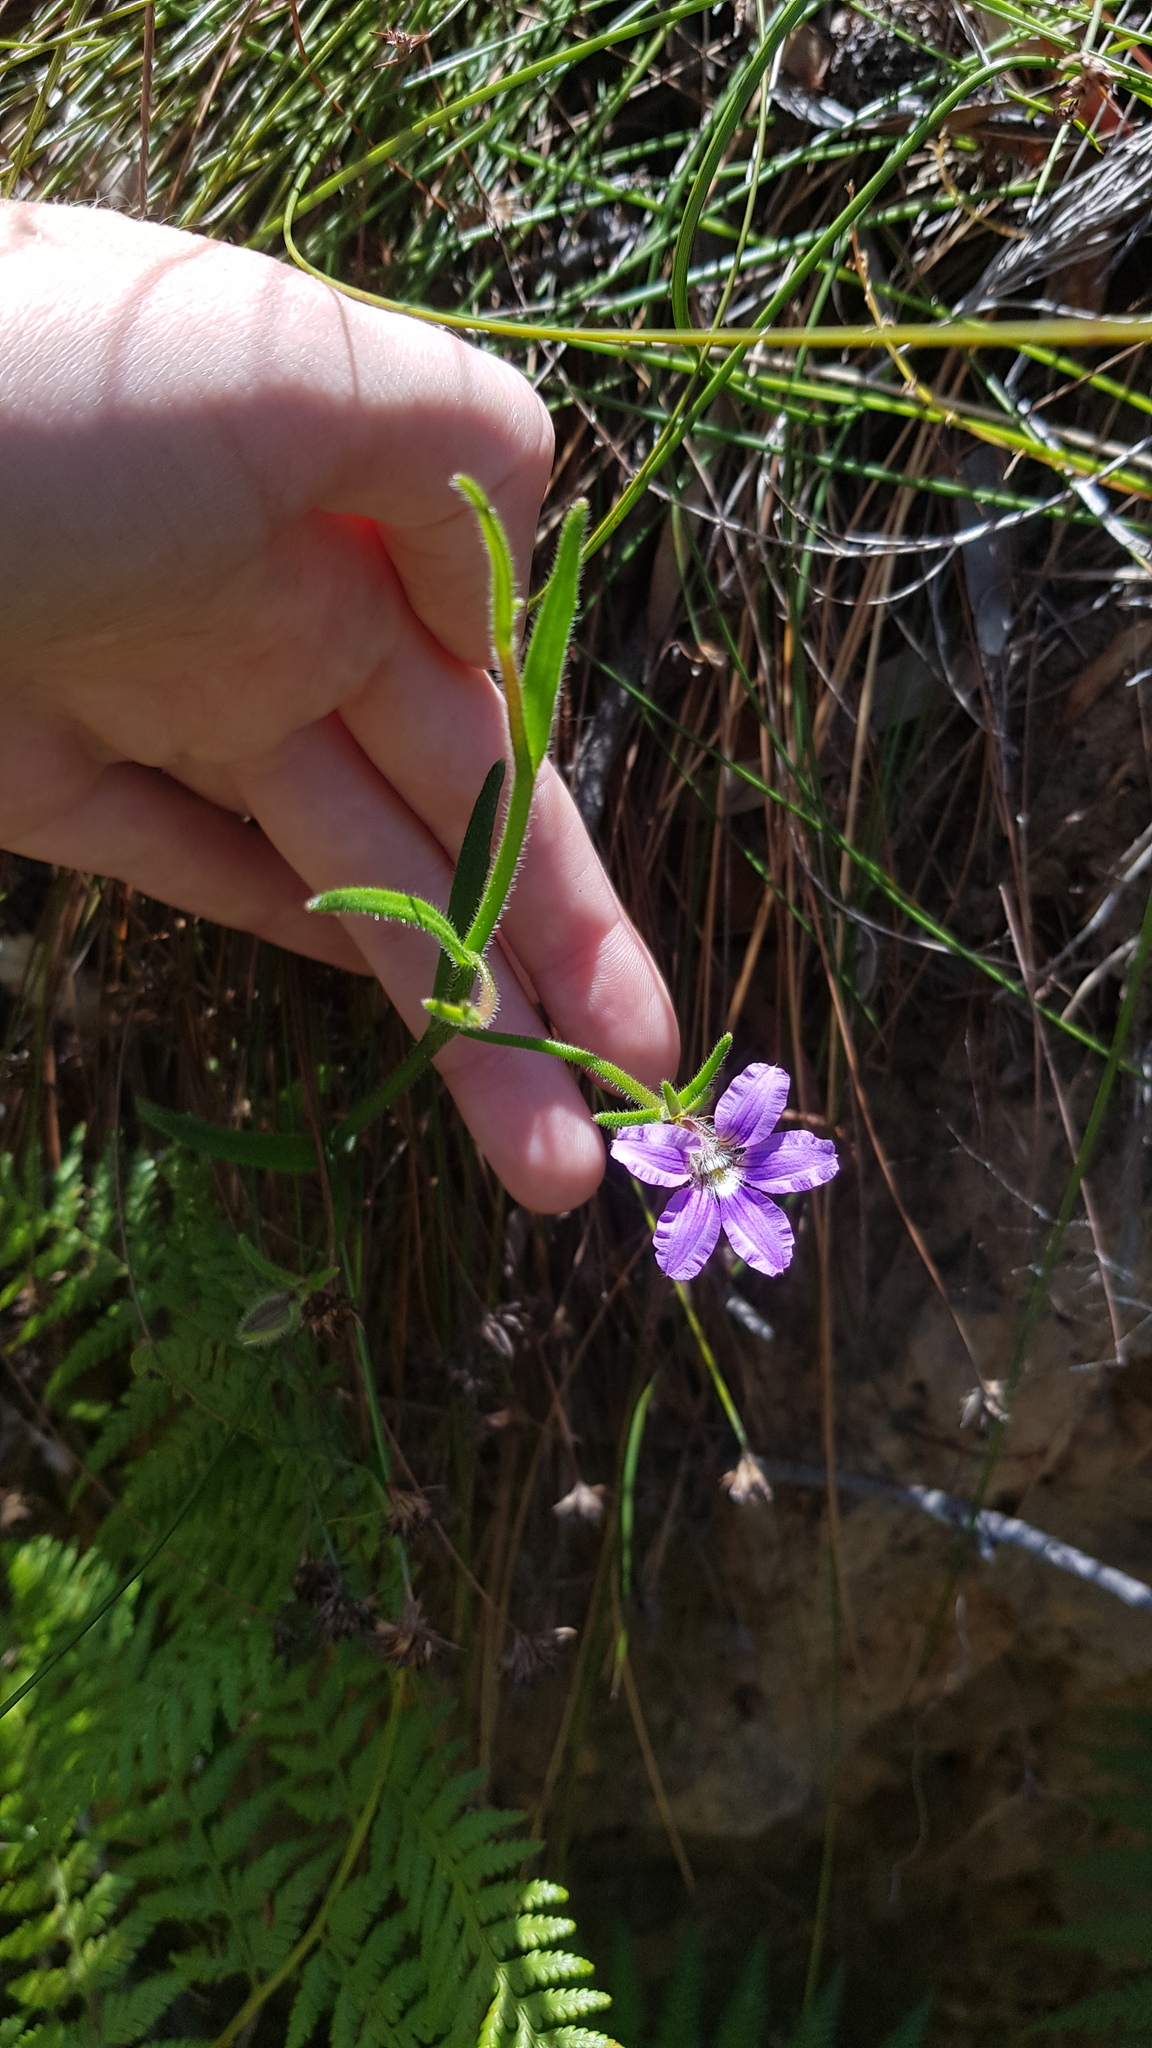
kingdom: Plantae
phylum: Tracheophyta
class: Magnoliopsida
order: Asterales
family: Goodeniaceae
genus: Scaevola
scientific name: Scaevola ramosissima
